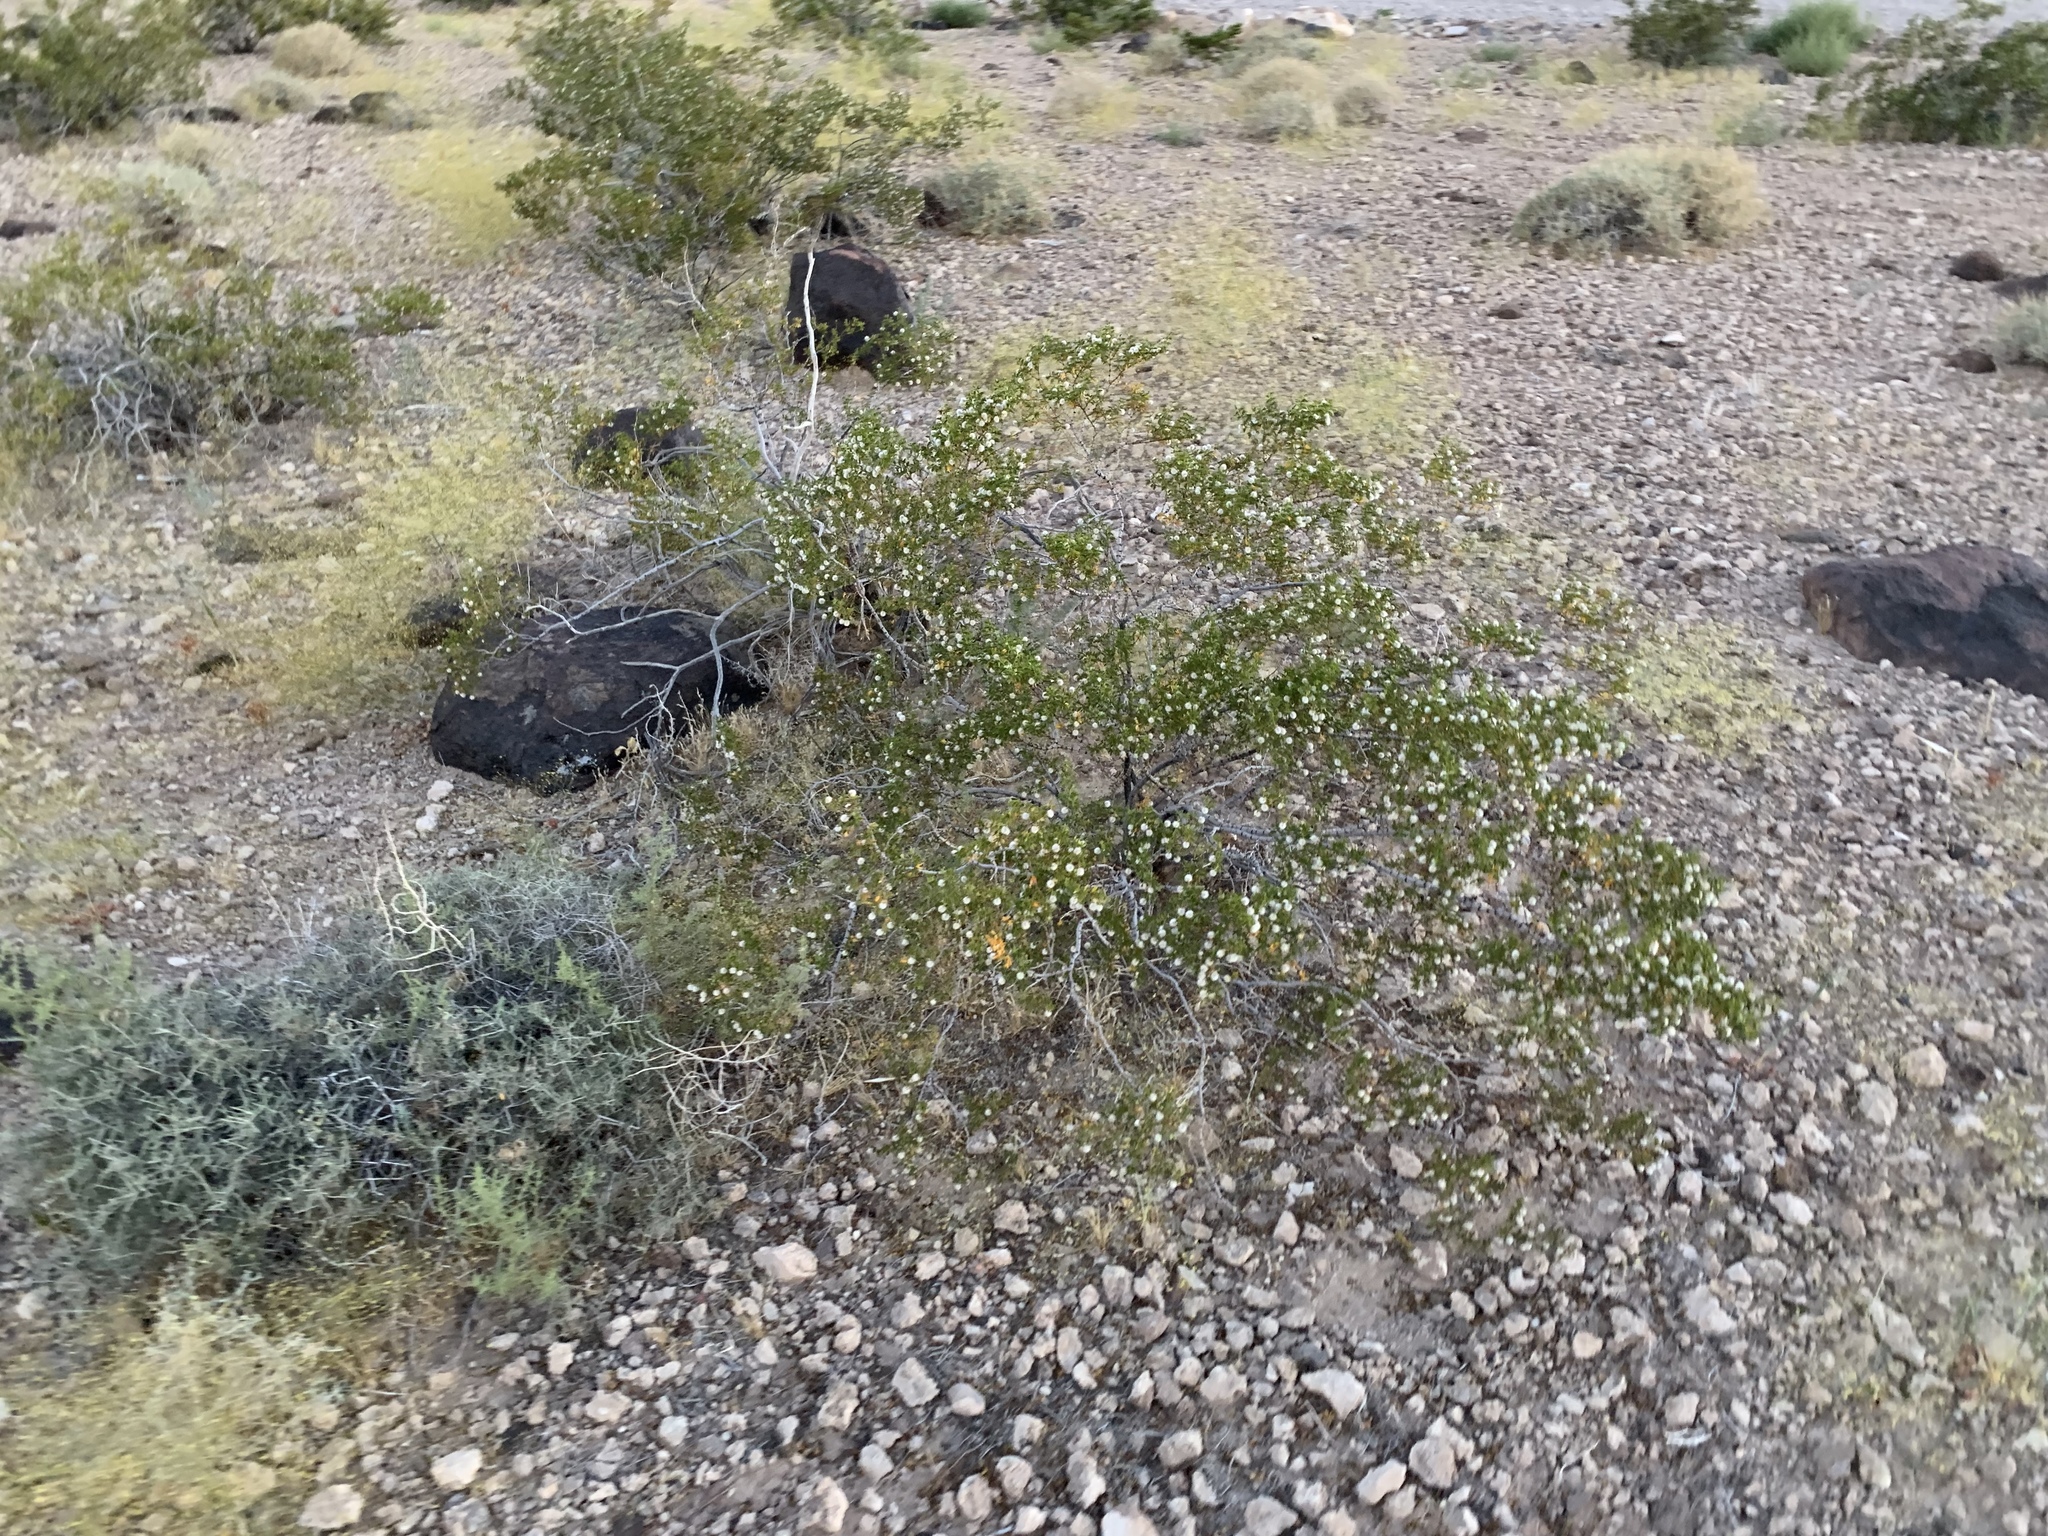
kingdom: Plantae
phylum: Tracheophyta
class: Magnoliopsida
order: Zygophyllales
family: Zygophyllaceae
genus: Larrea
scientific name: Larrea tridentata
